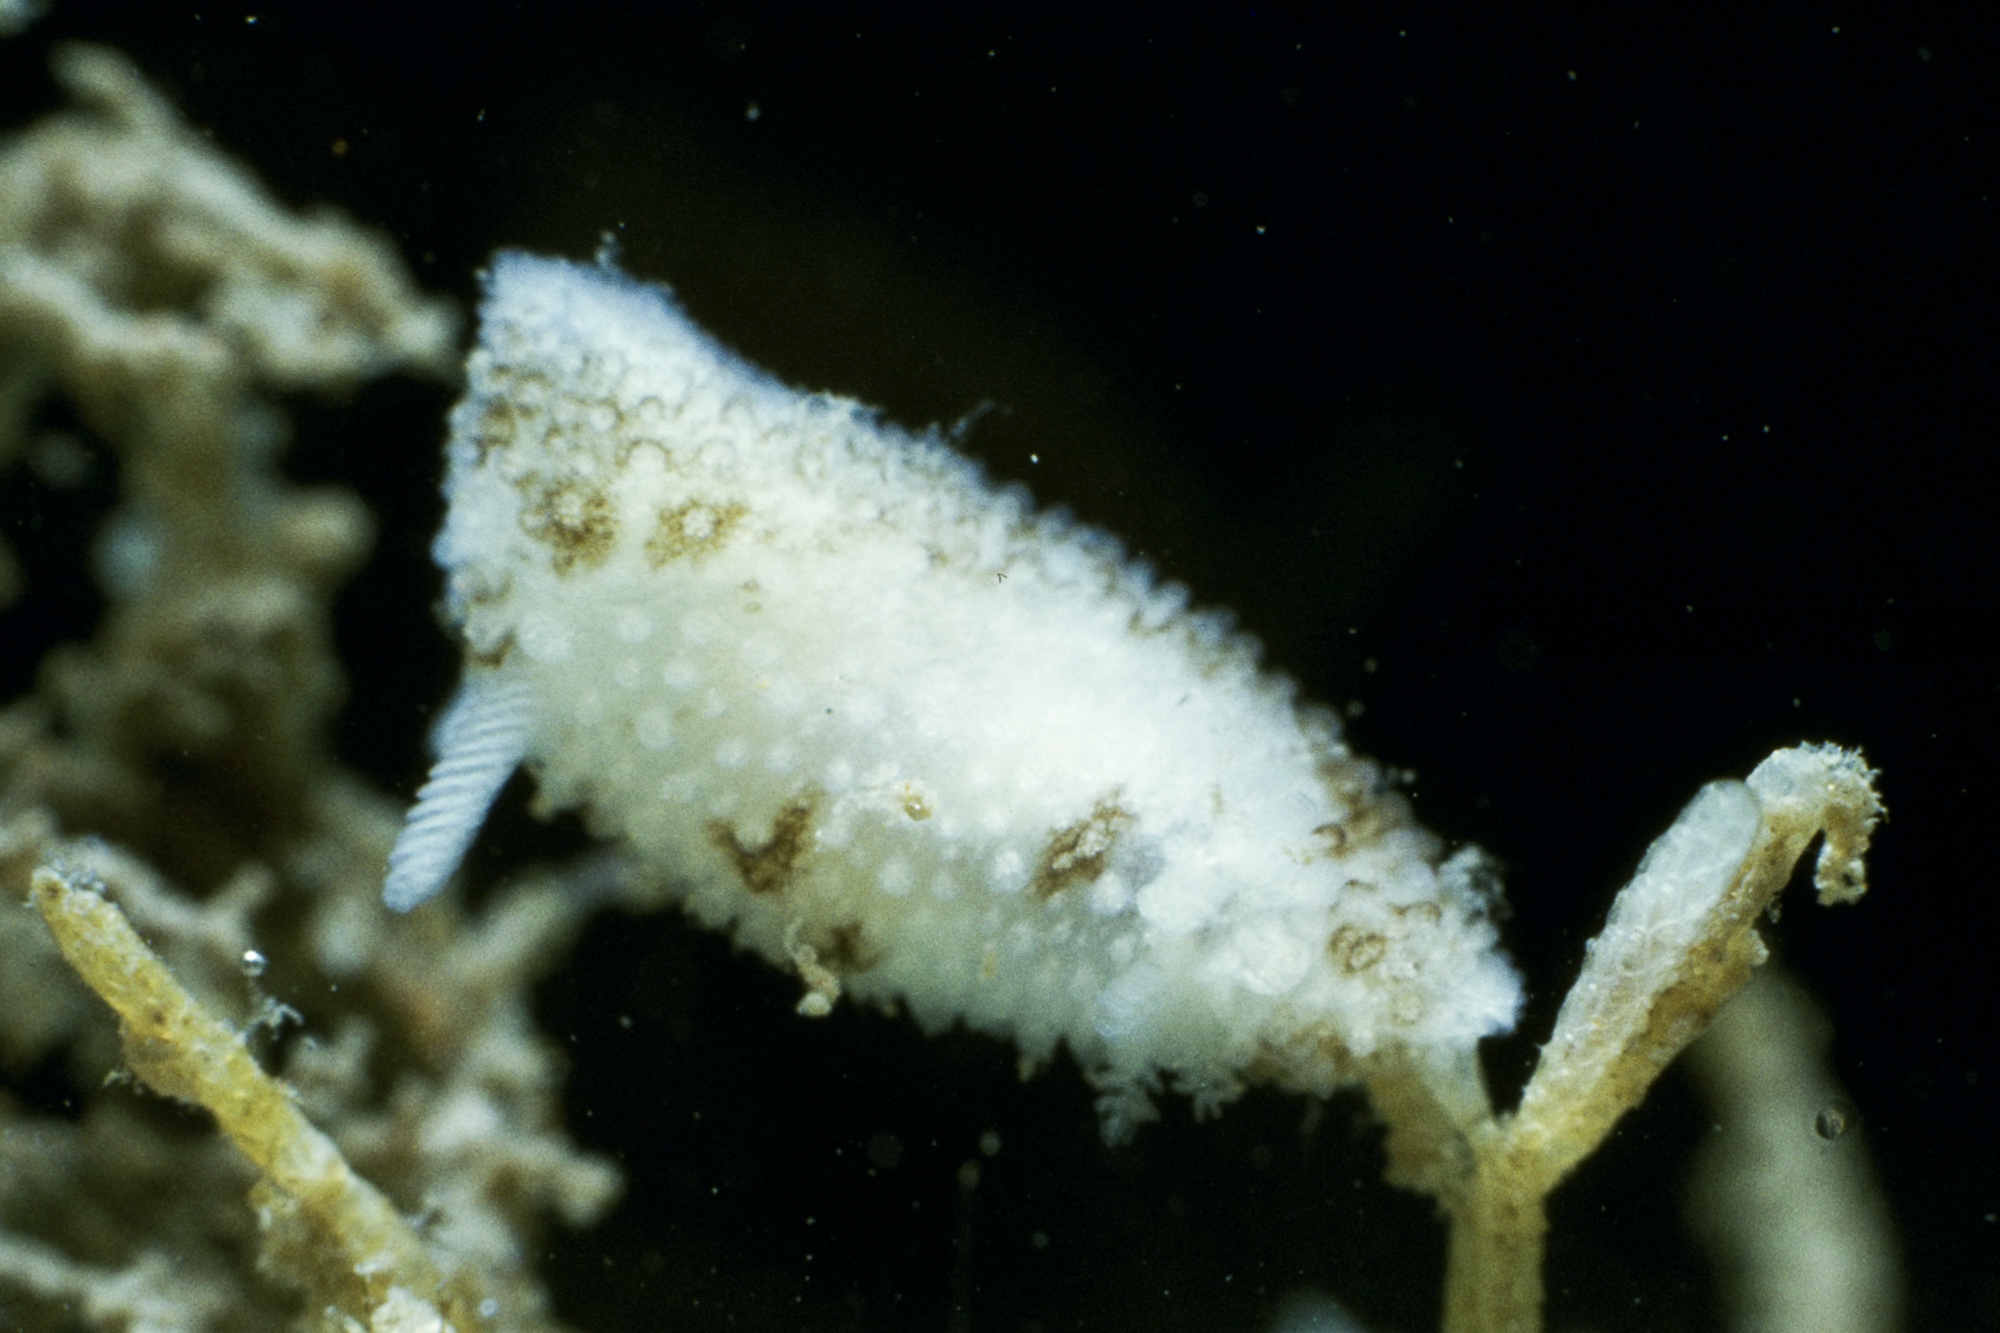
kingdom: Animalia
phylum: Mollusca
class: Gastropoda
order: Nudibranchia
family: Onchidorididae
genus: Atalodoris
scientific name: Atalodoris oblonga
